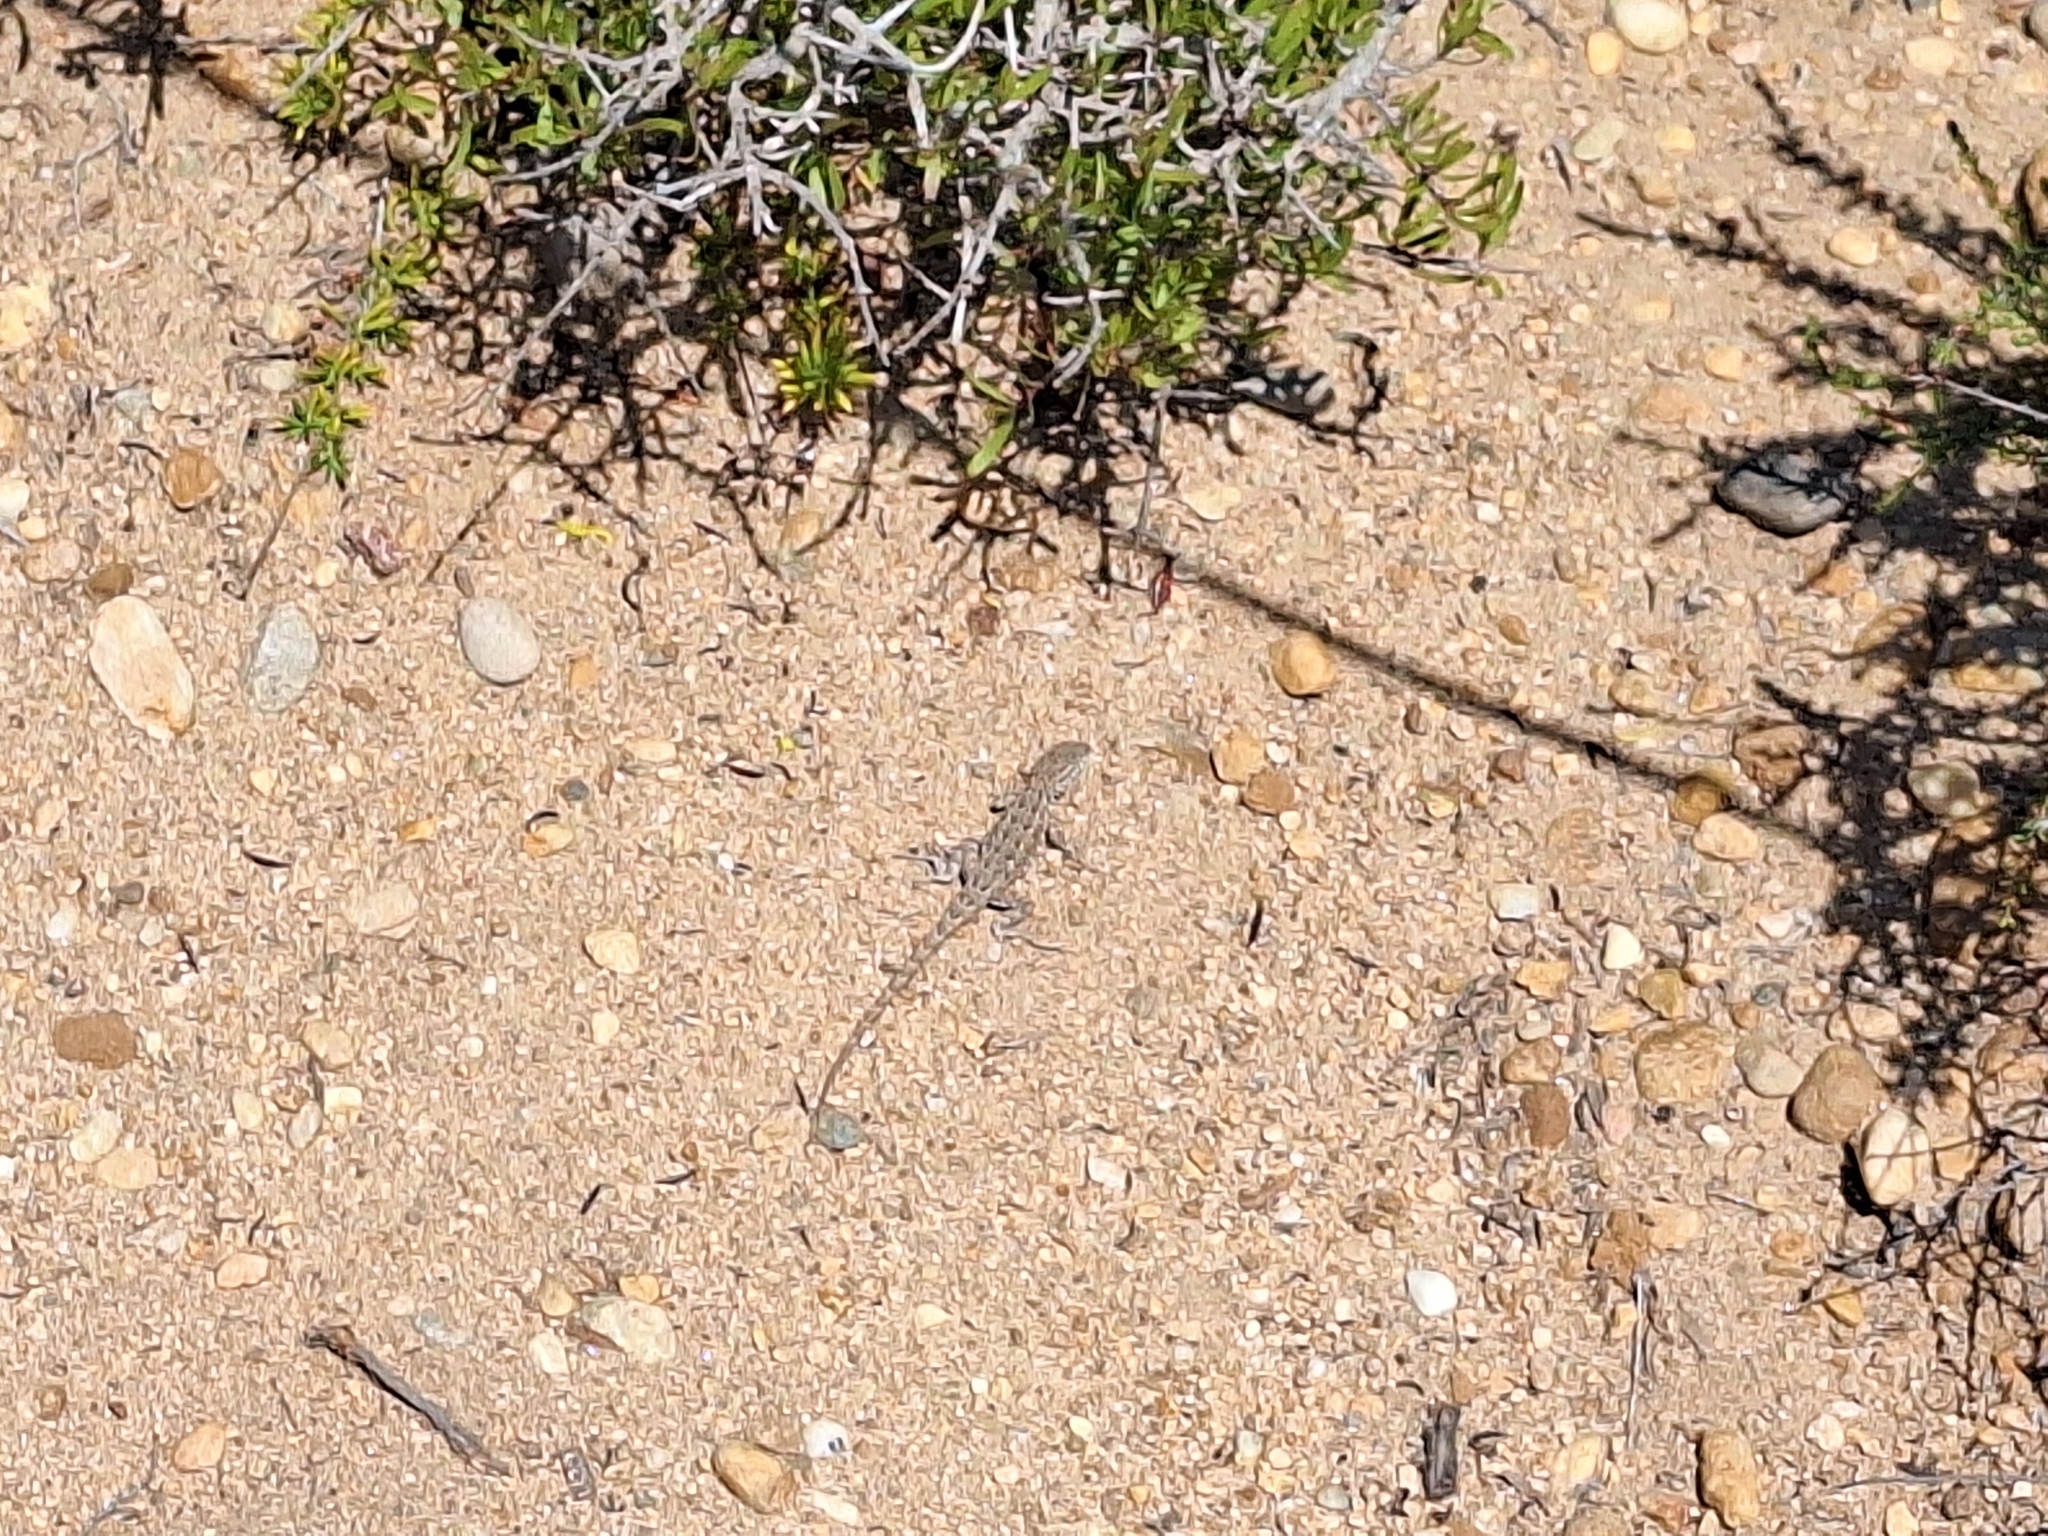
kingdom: Animalia
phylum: Chordata
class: Squamata
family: Phrynosomatidae
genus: Uta
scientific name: Uta stansburiana
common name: Side-blotched lizard
